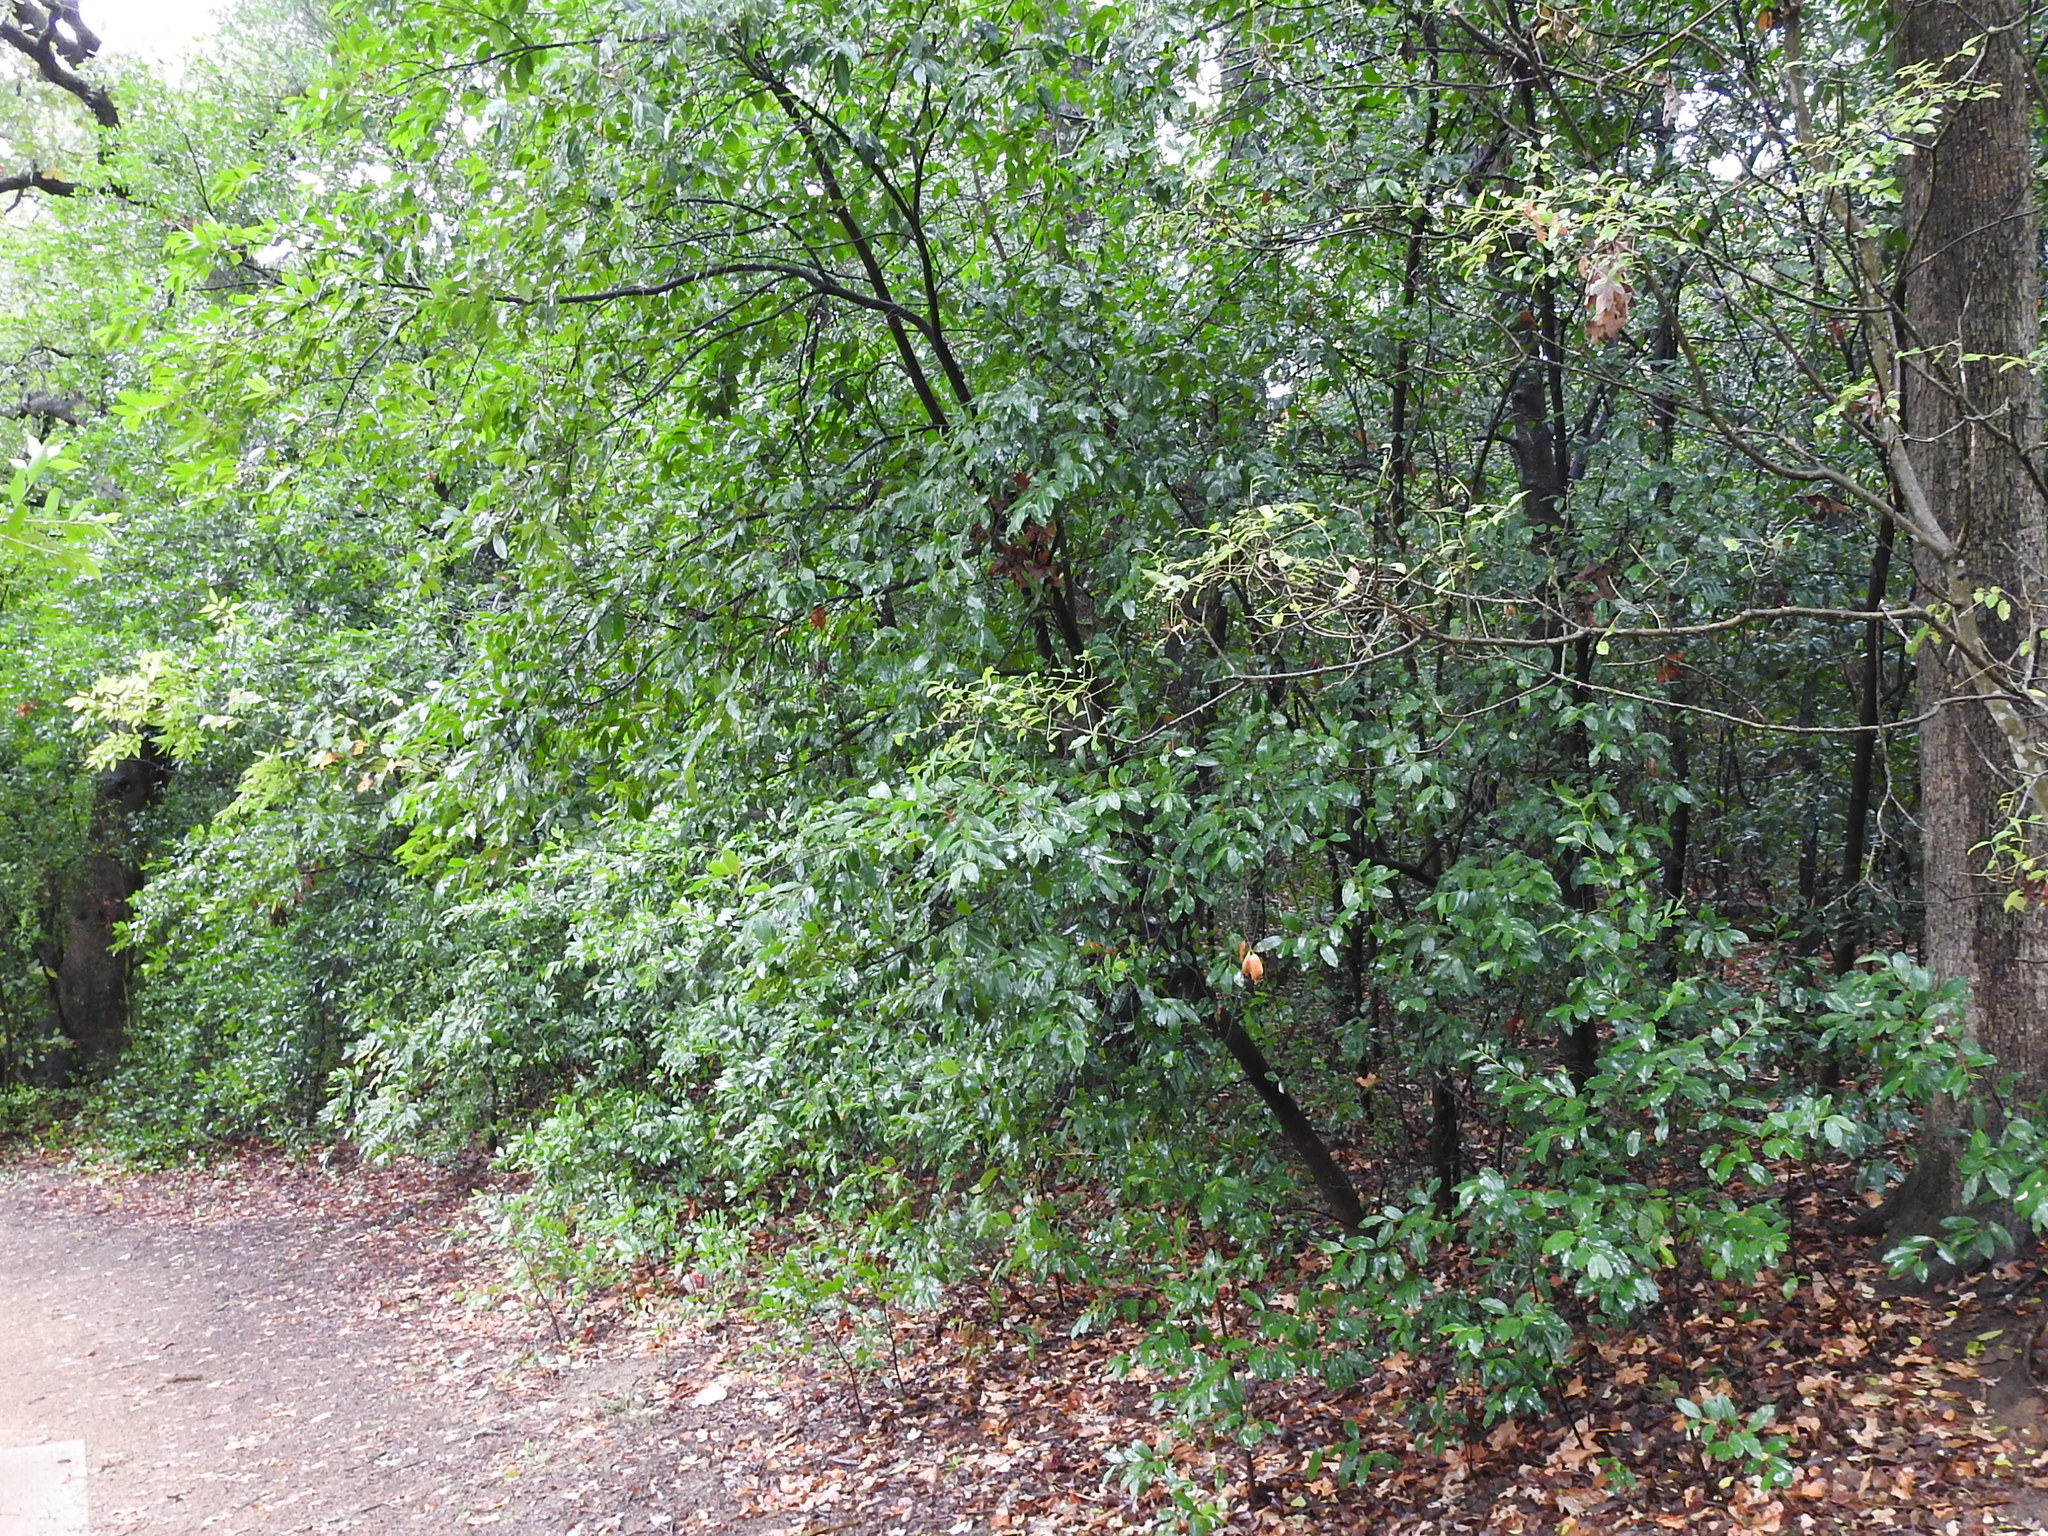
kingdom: Plantae
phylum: Tracheophyta
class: Magnoliopsida
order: Rosales
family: Rosaceae
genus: Prunus
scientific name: Prunus caroliniana
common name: Carolina laurel cherry
